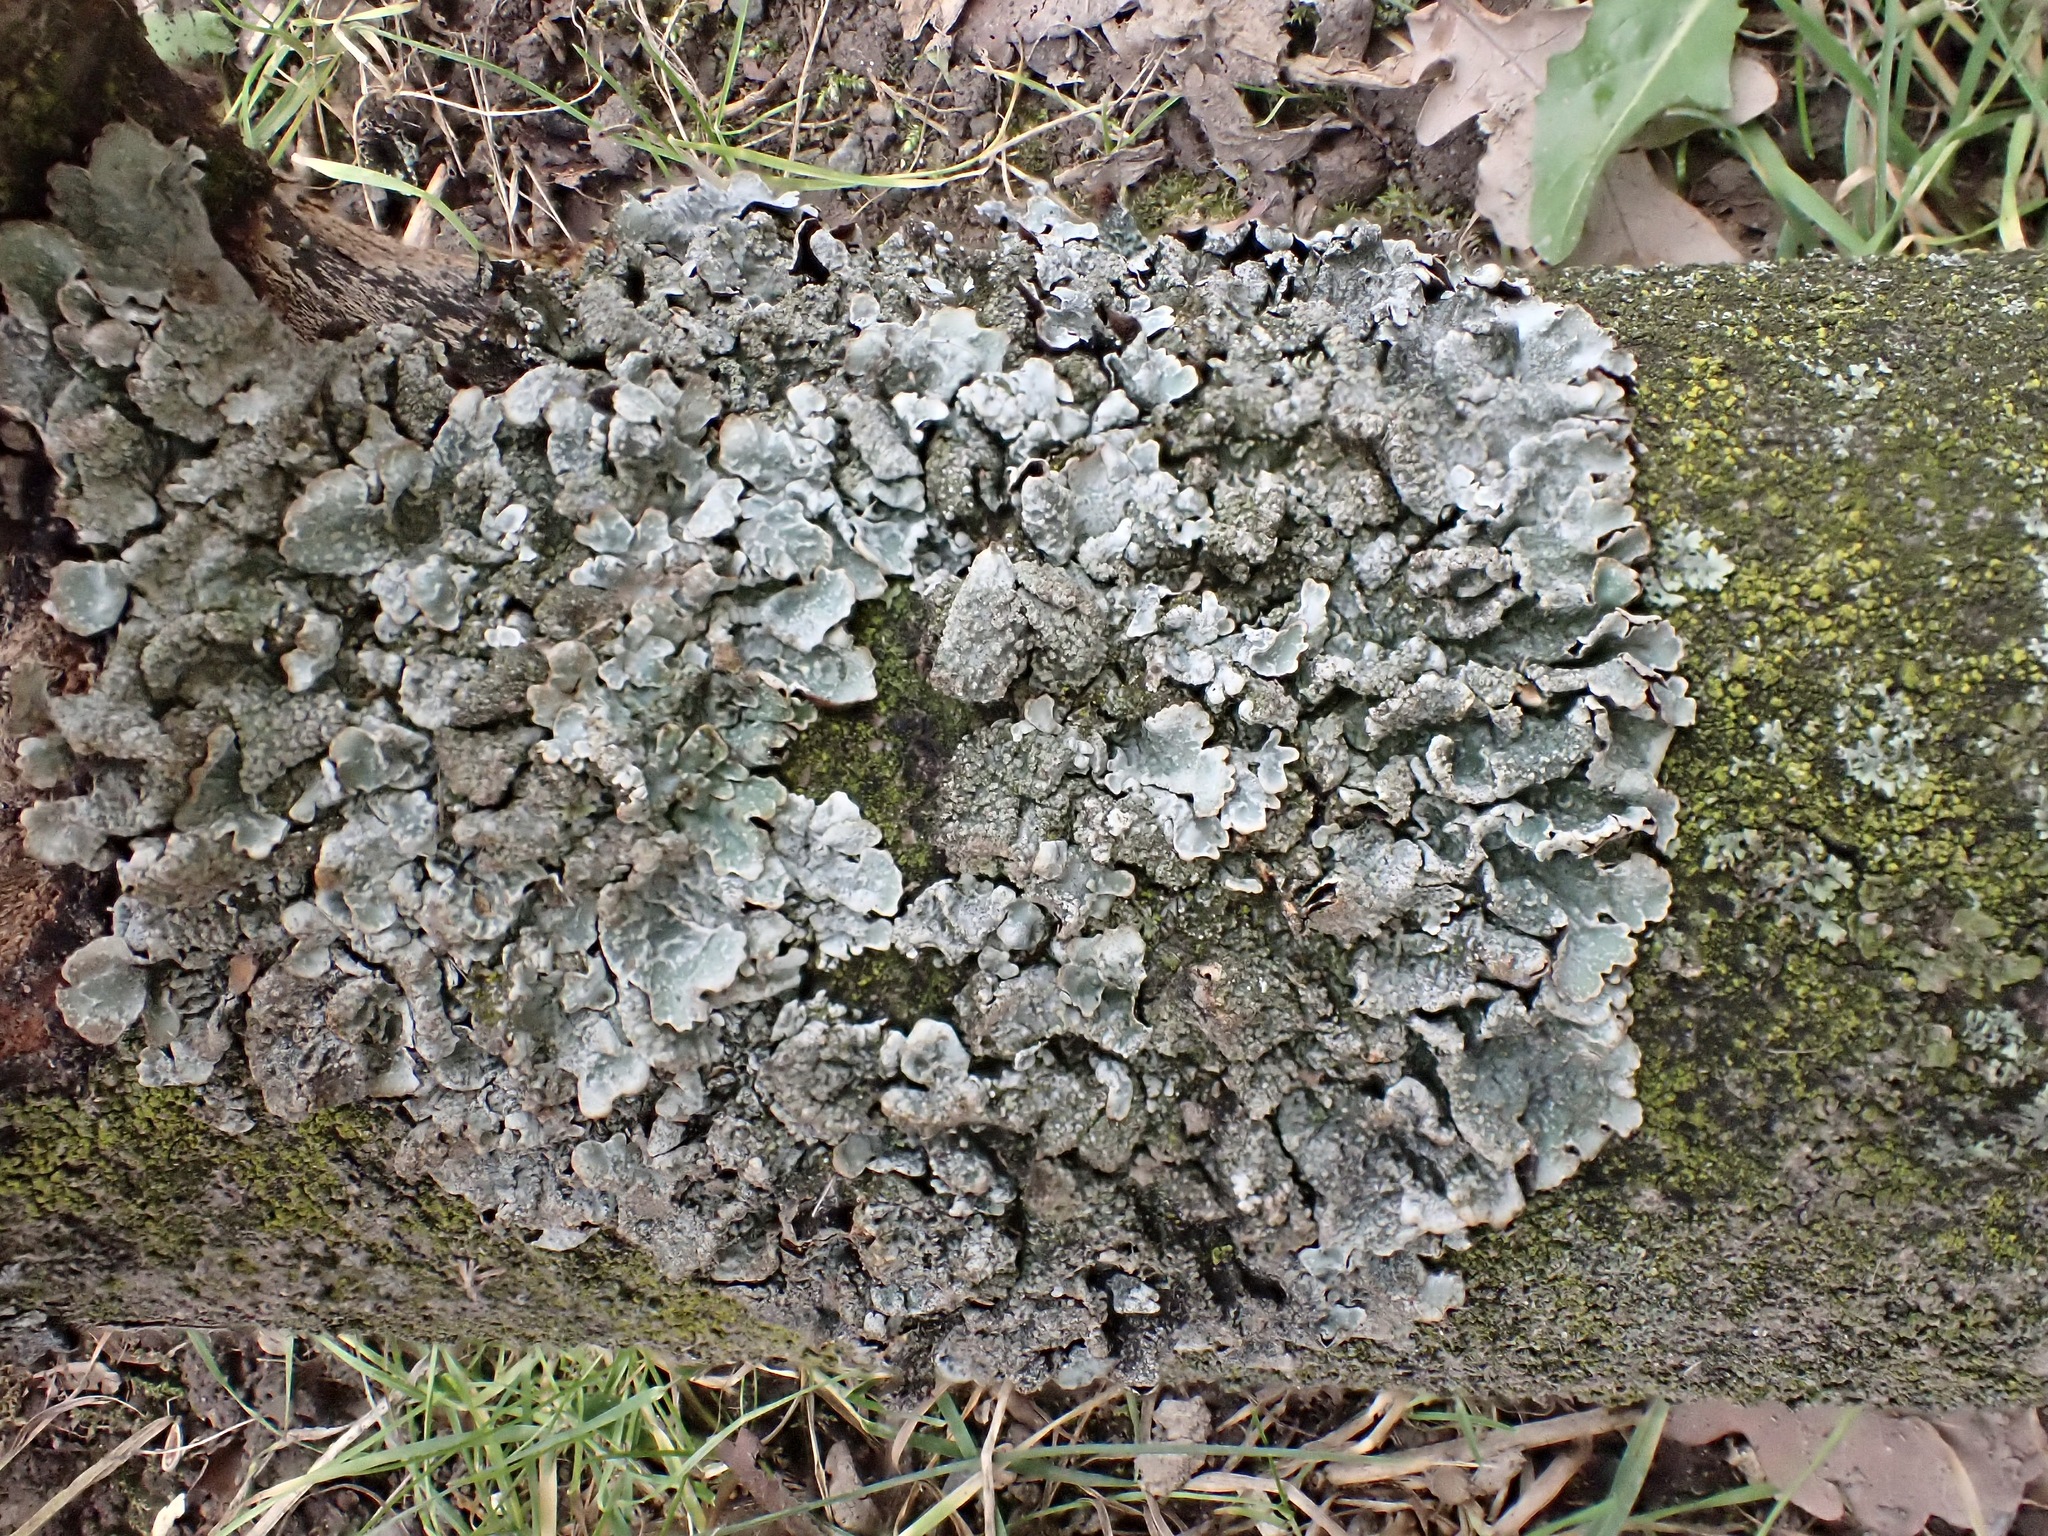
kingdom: Fungi
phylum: Ascomycota
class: Lecanoromycetes
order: Lecanorales
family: Parmeliaceae
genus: Parmelia
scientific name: Parmelia sulcata
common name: Netted shield lichen
